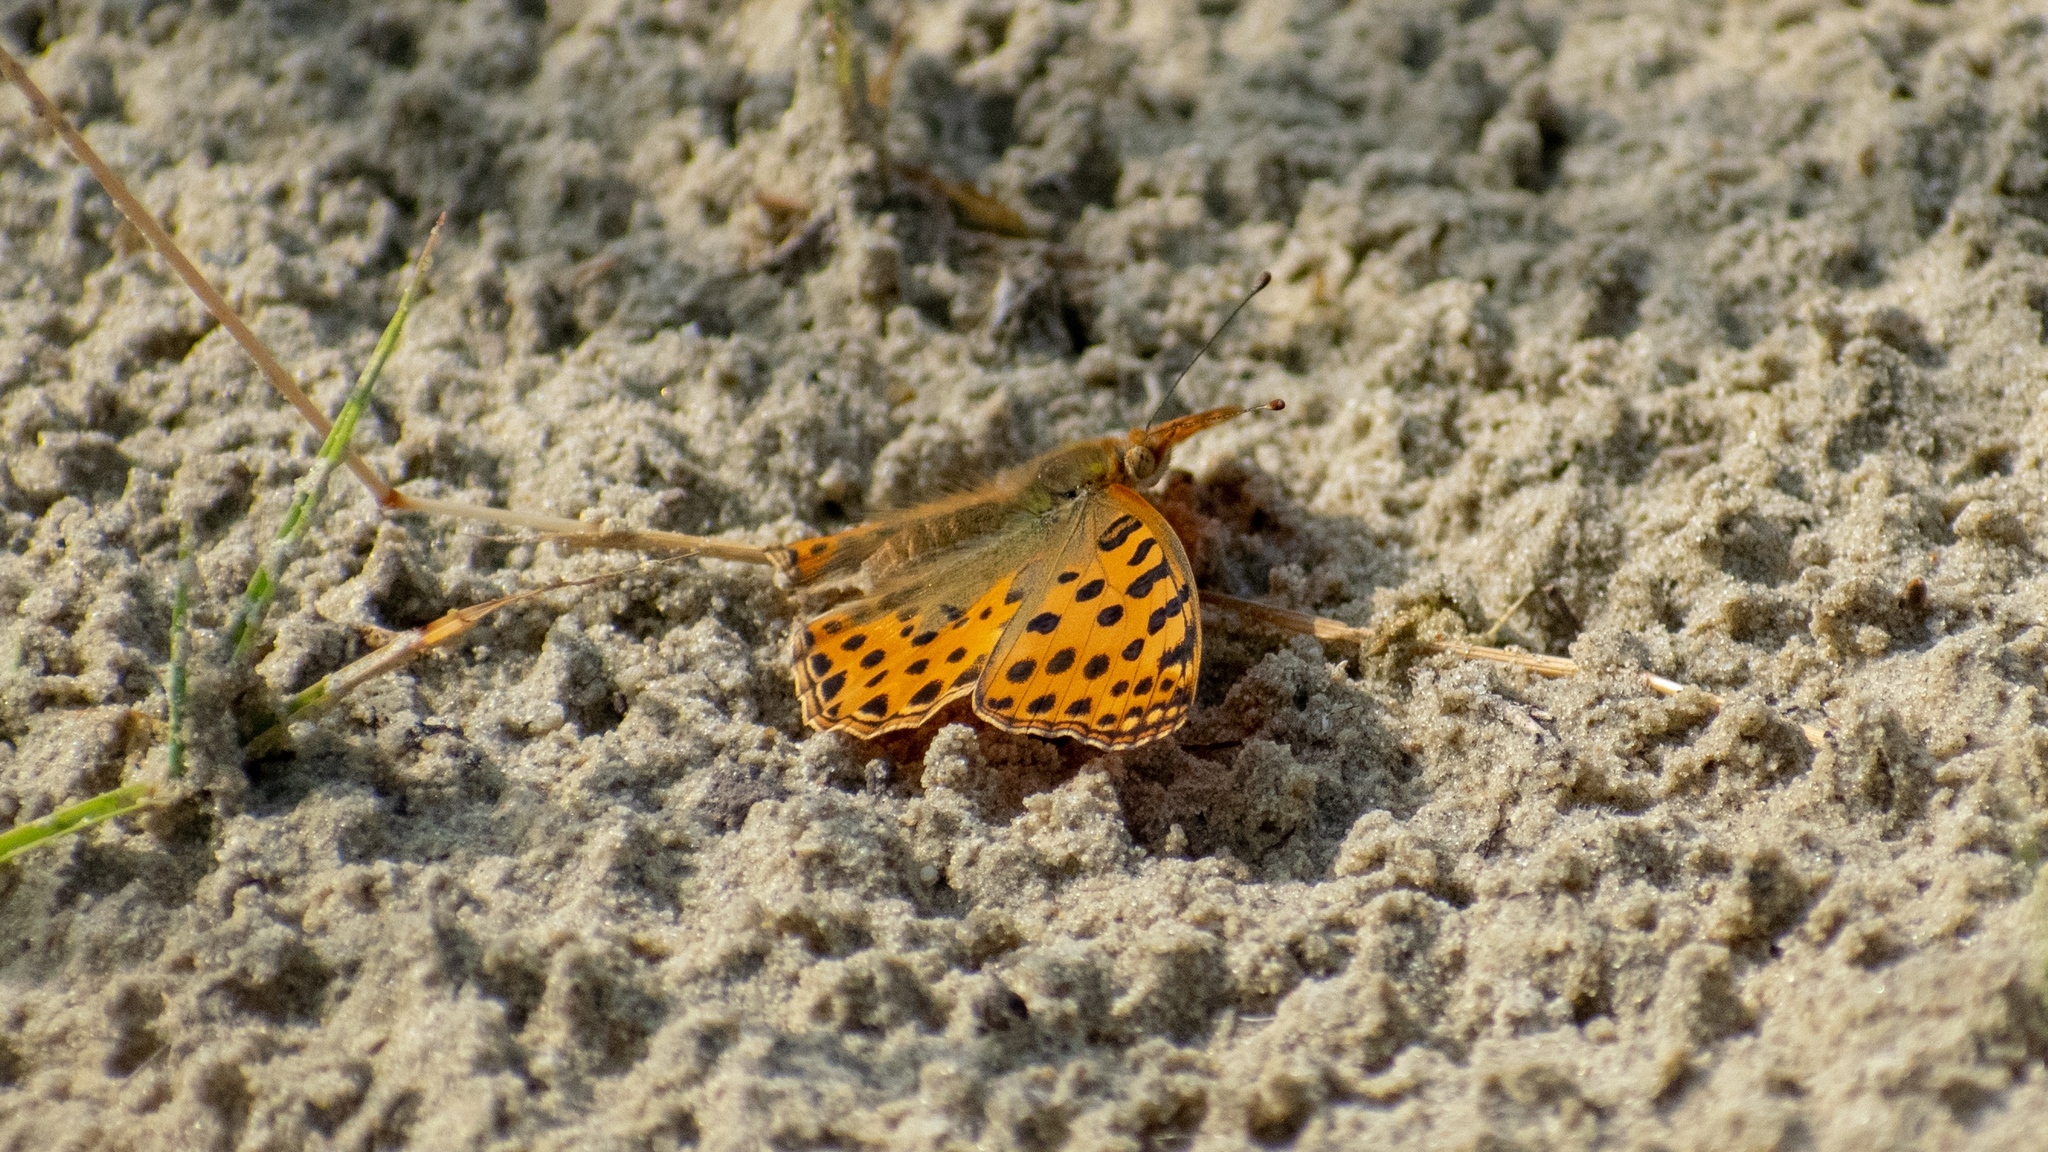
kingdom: Animalia
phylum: Arthropoda
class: Insecta
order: Lepidoptera
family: Nymphalidae
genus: Issoria
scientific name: Issoria lathonia
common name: Queen of spain fritillary
